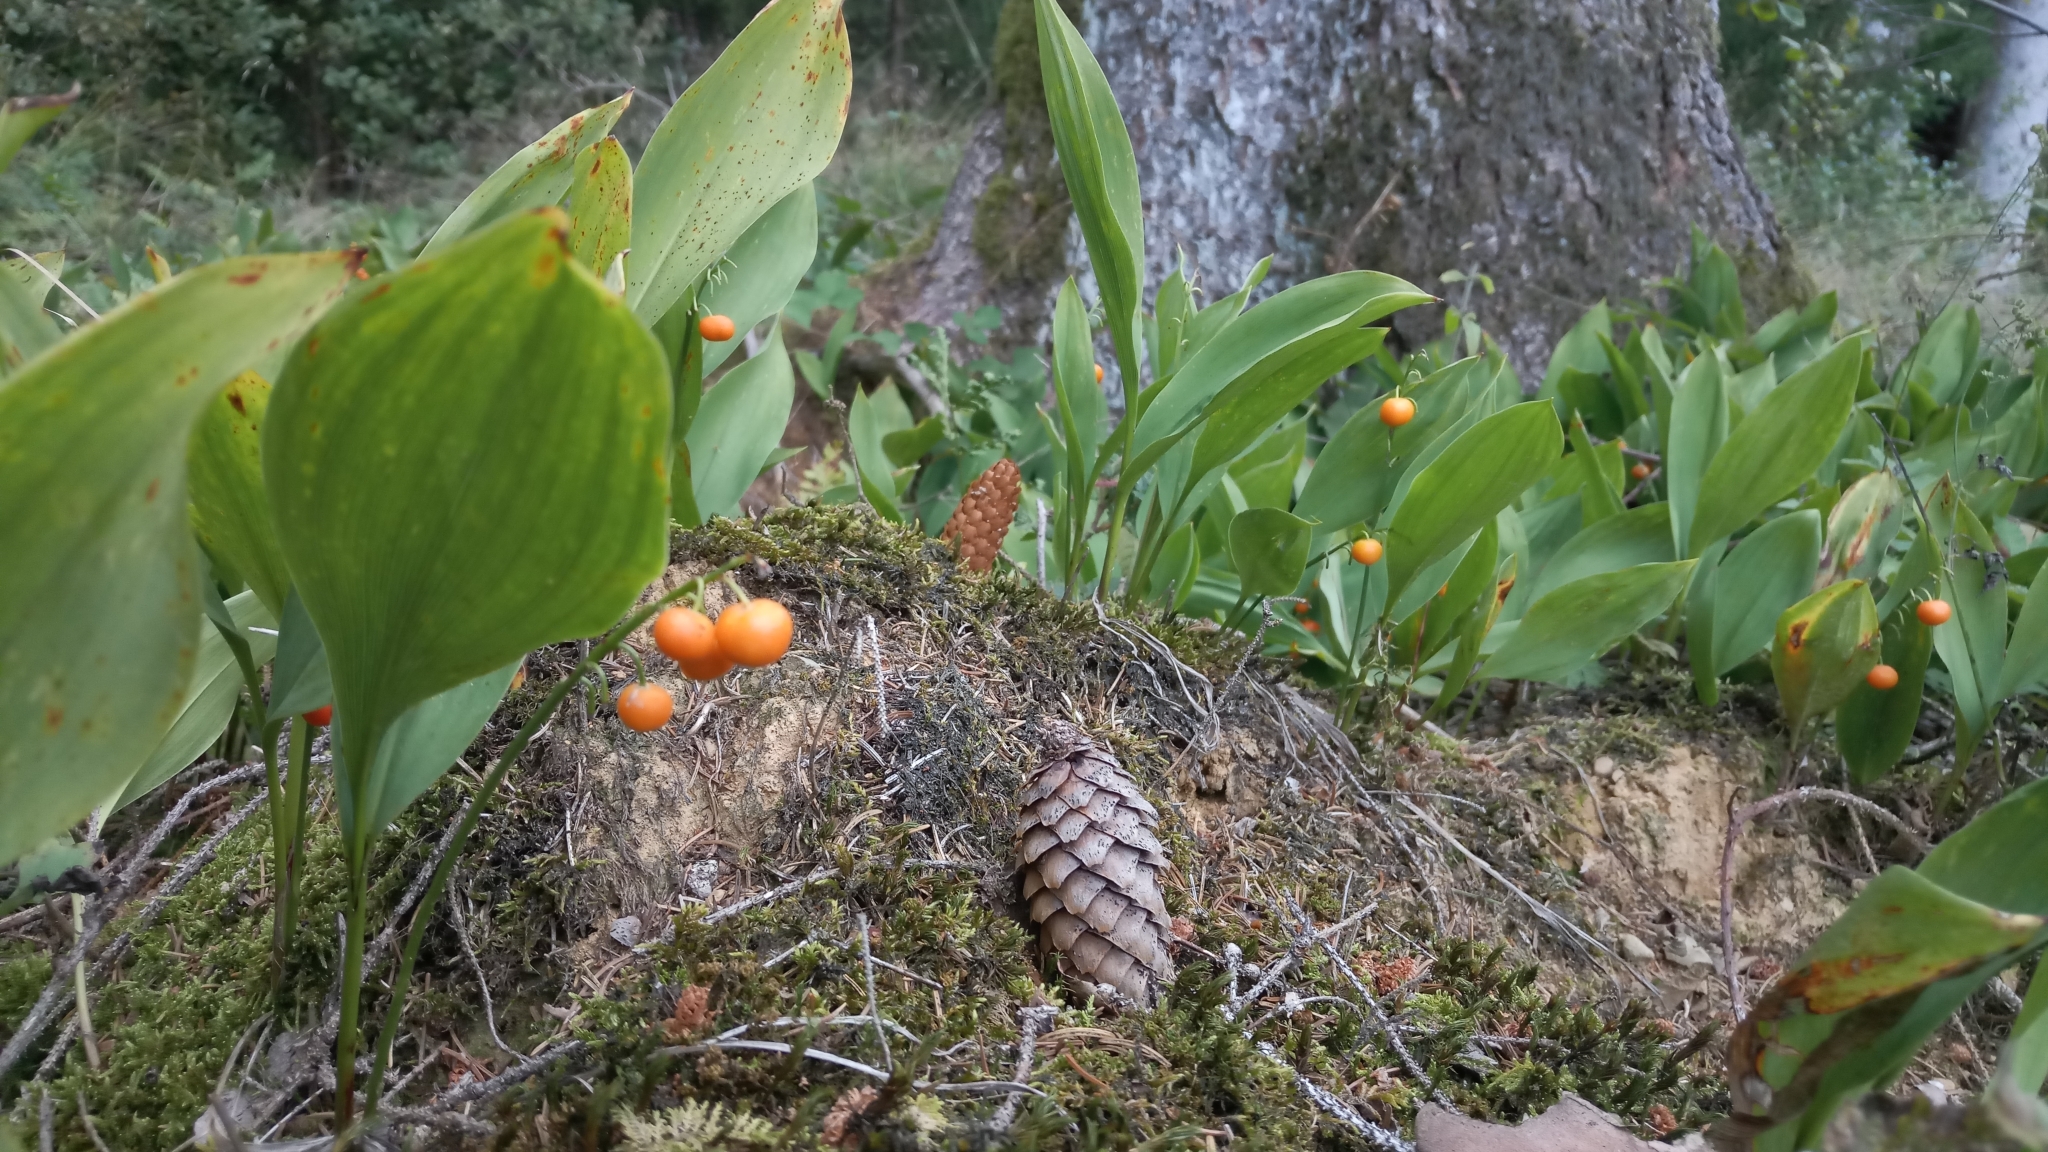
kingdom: Plantae
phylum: Tracheophyta
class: Liliopsida
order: Asparagales
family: Asparagaceae
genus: Convallaria
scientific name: Convallaria majalis
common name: Lily-of-the-valley
